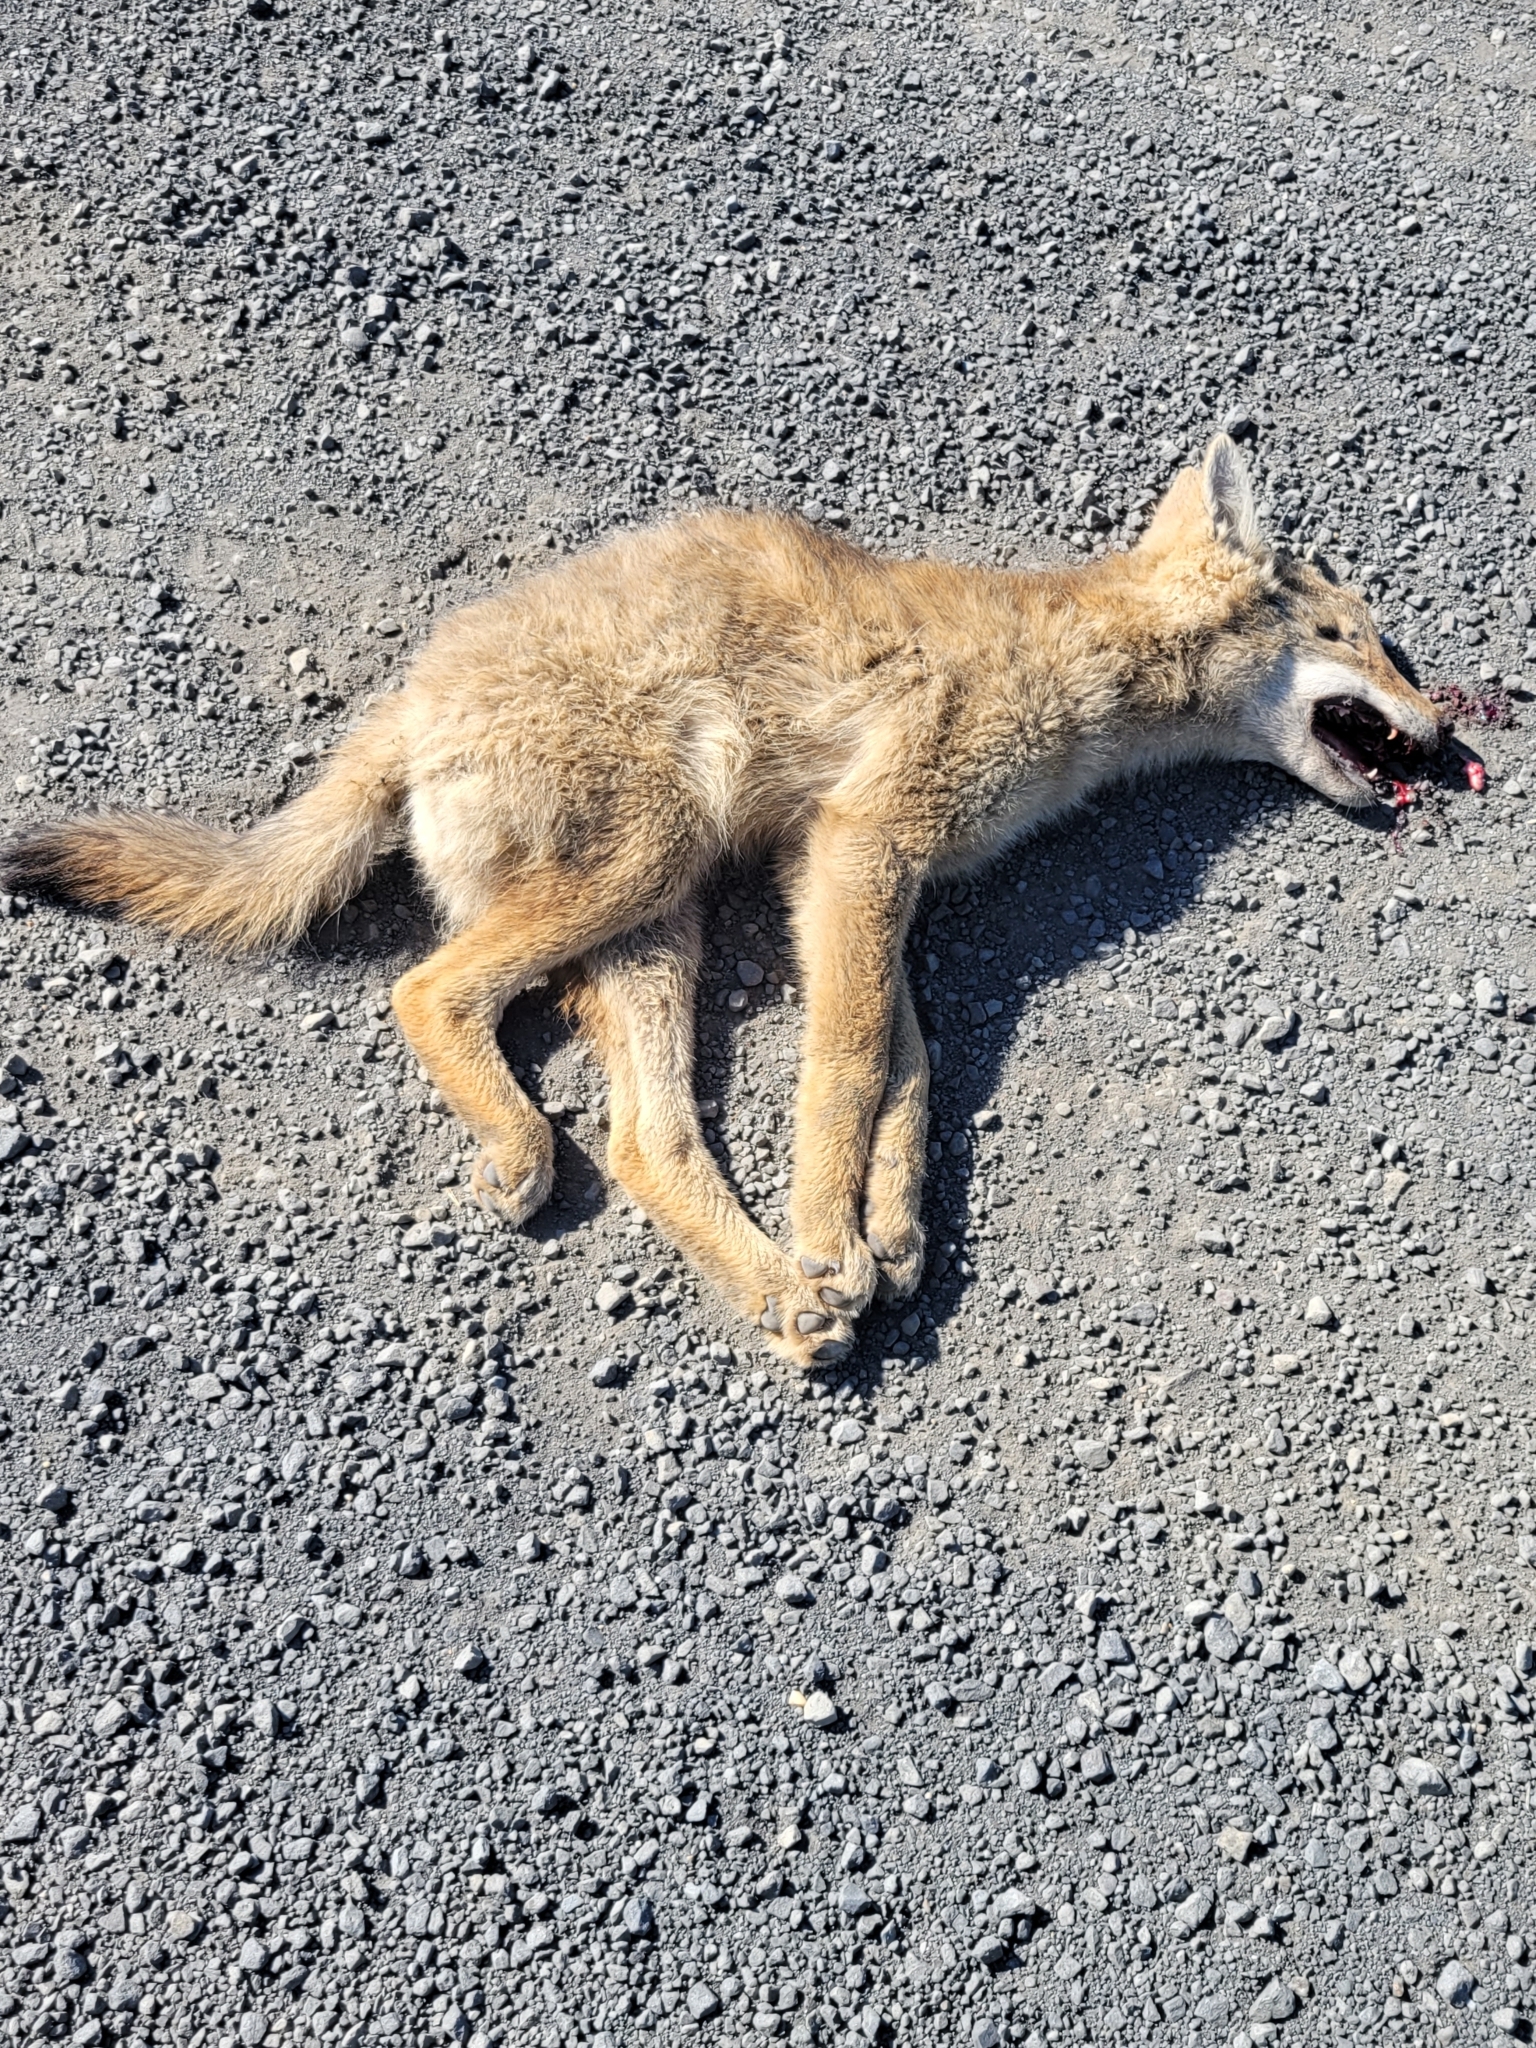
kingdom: Animalia
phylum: Chordata
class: Mammalia
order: Carnivora
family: Canidae
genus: Canis
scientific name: Canis latrans
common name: Coyote
